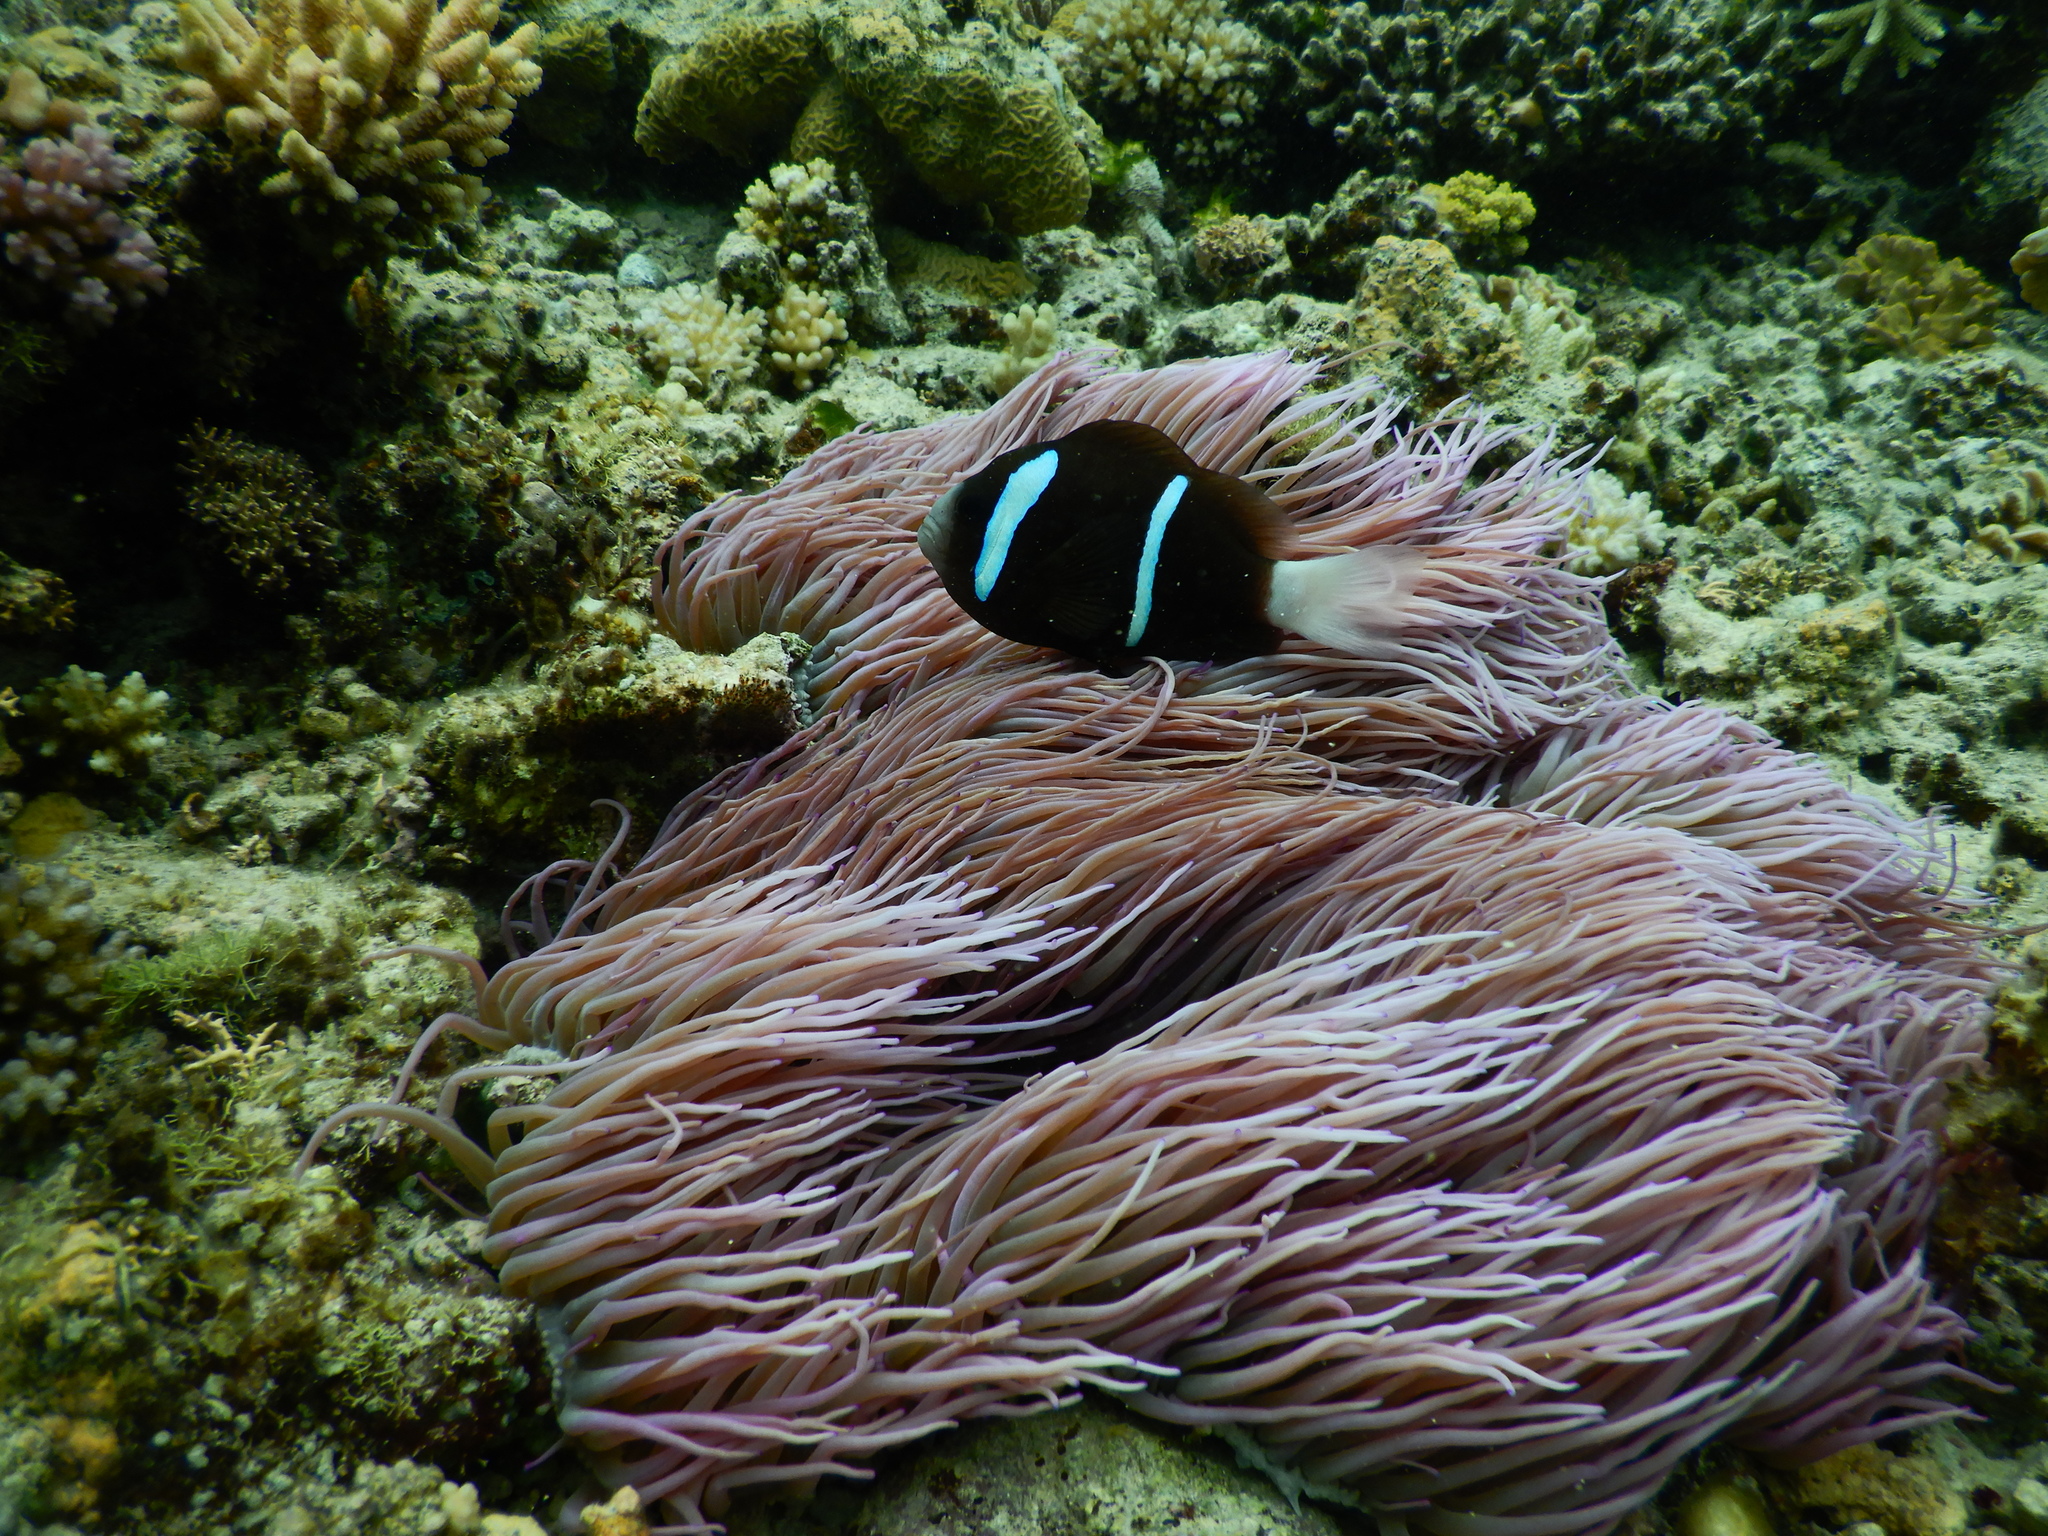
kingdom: Animalia
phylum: Chordata
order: Perciformes
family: Pomacentridae
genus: Amphiprion
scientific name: Amphiprion akindynos
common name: Barrier reef anemonefish
